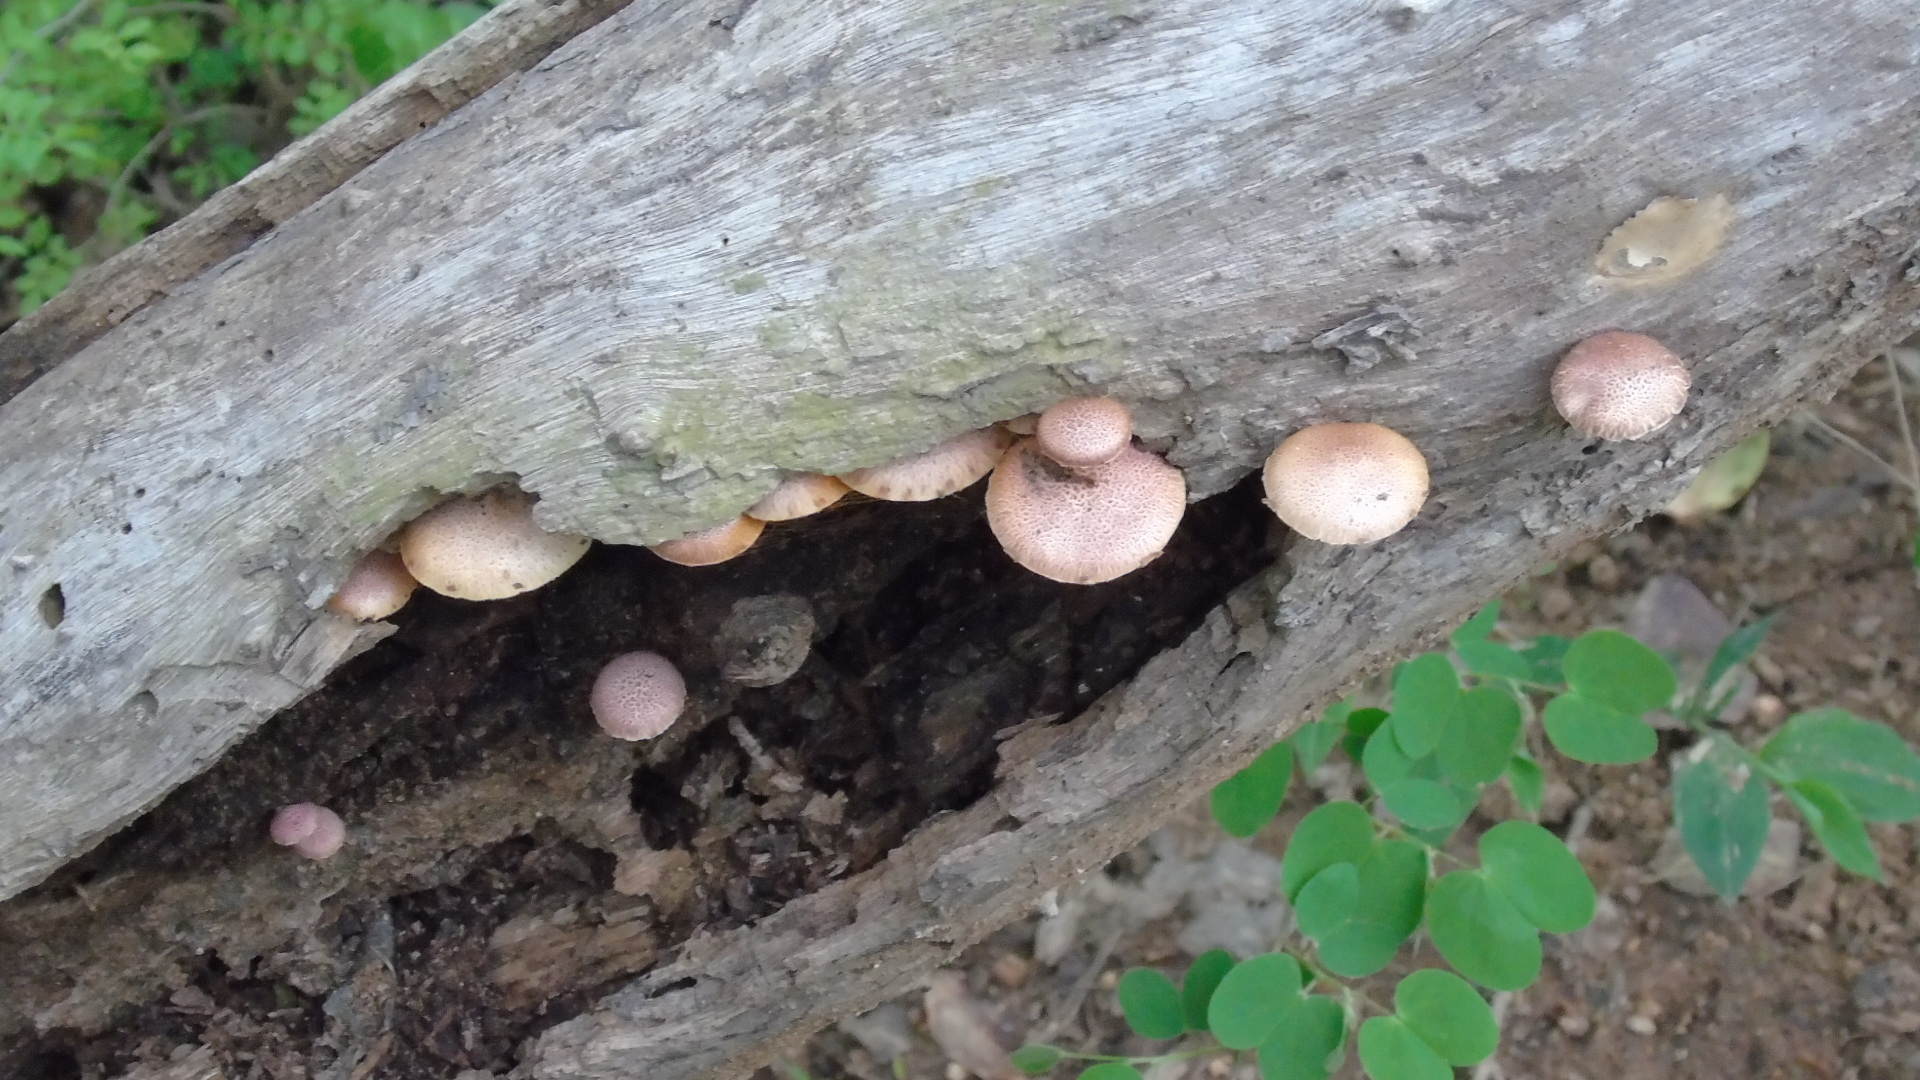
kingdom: Fungi
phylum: Basidiomycota
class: Agaricomycetes
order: Agaricales
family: Hymenogastraceae
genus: Gymnopilus
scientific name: Gymnopilus subpurpuratus
